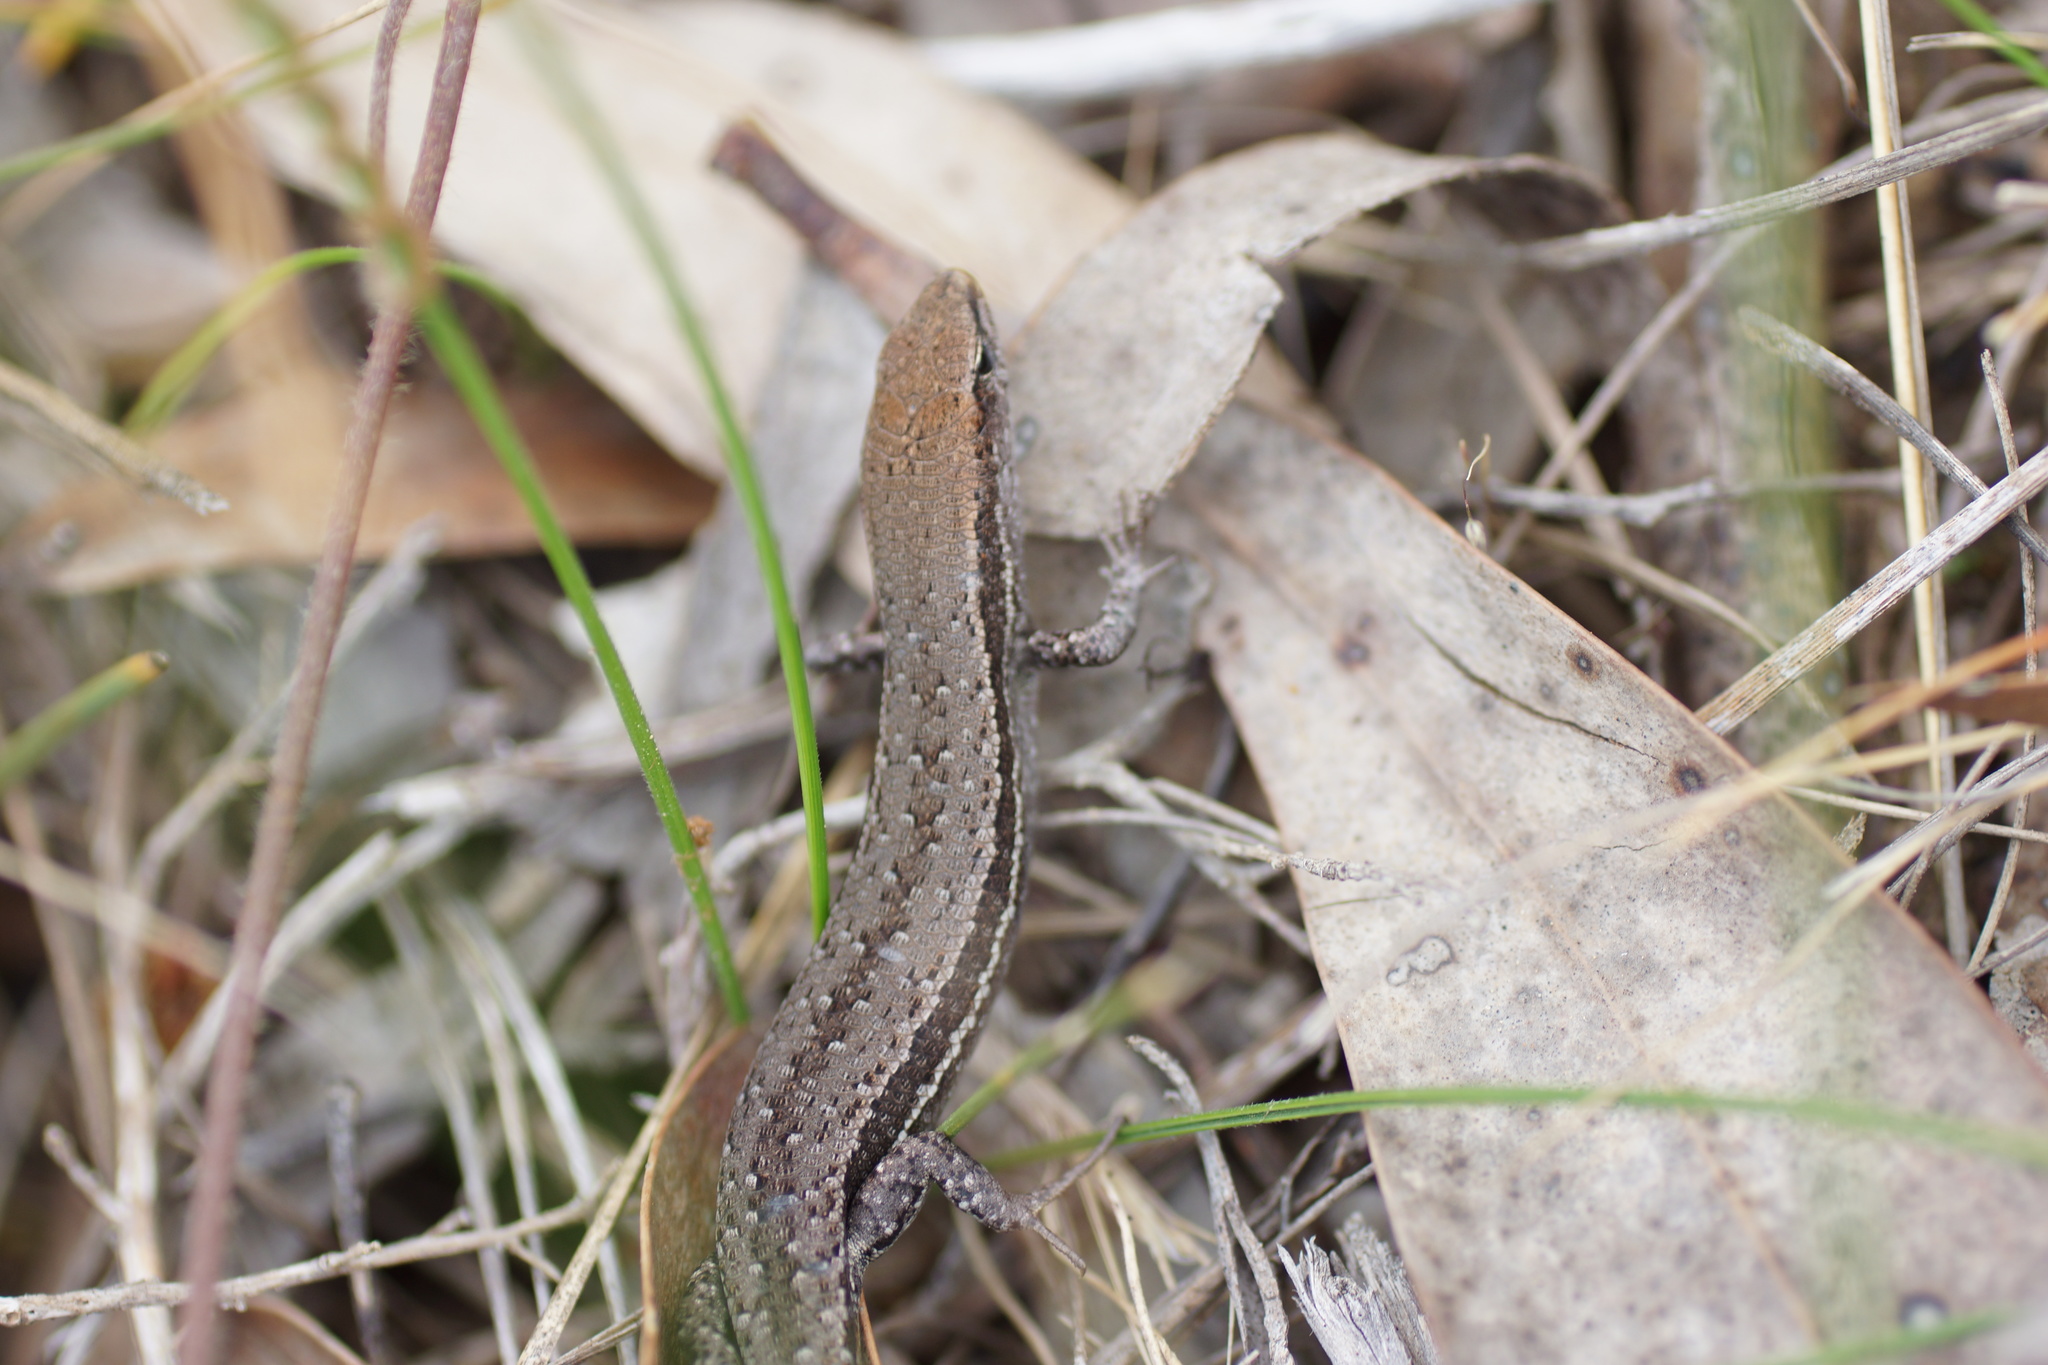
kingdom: Animalia
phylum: Chordata
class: Squamata
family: Scincidae
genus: Lampropholis
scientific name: Lampropholis guichenoti
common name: Garden skink
